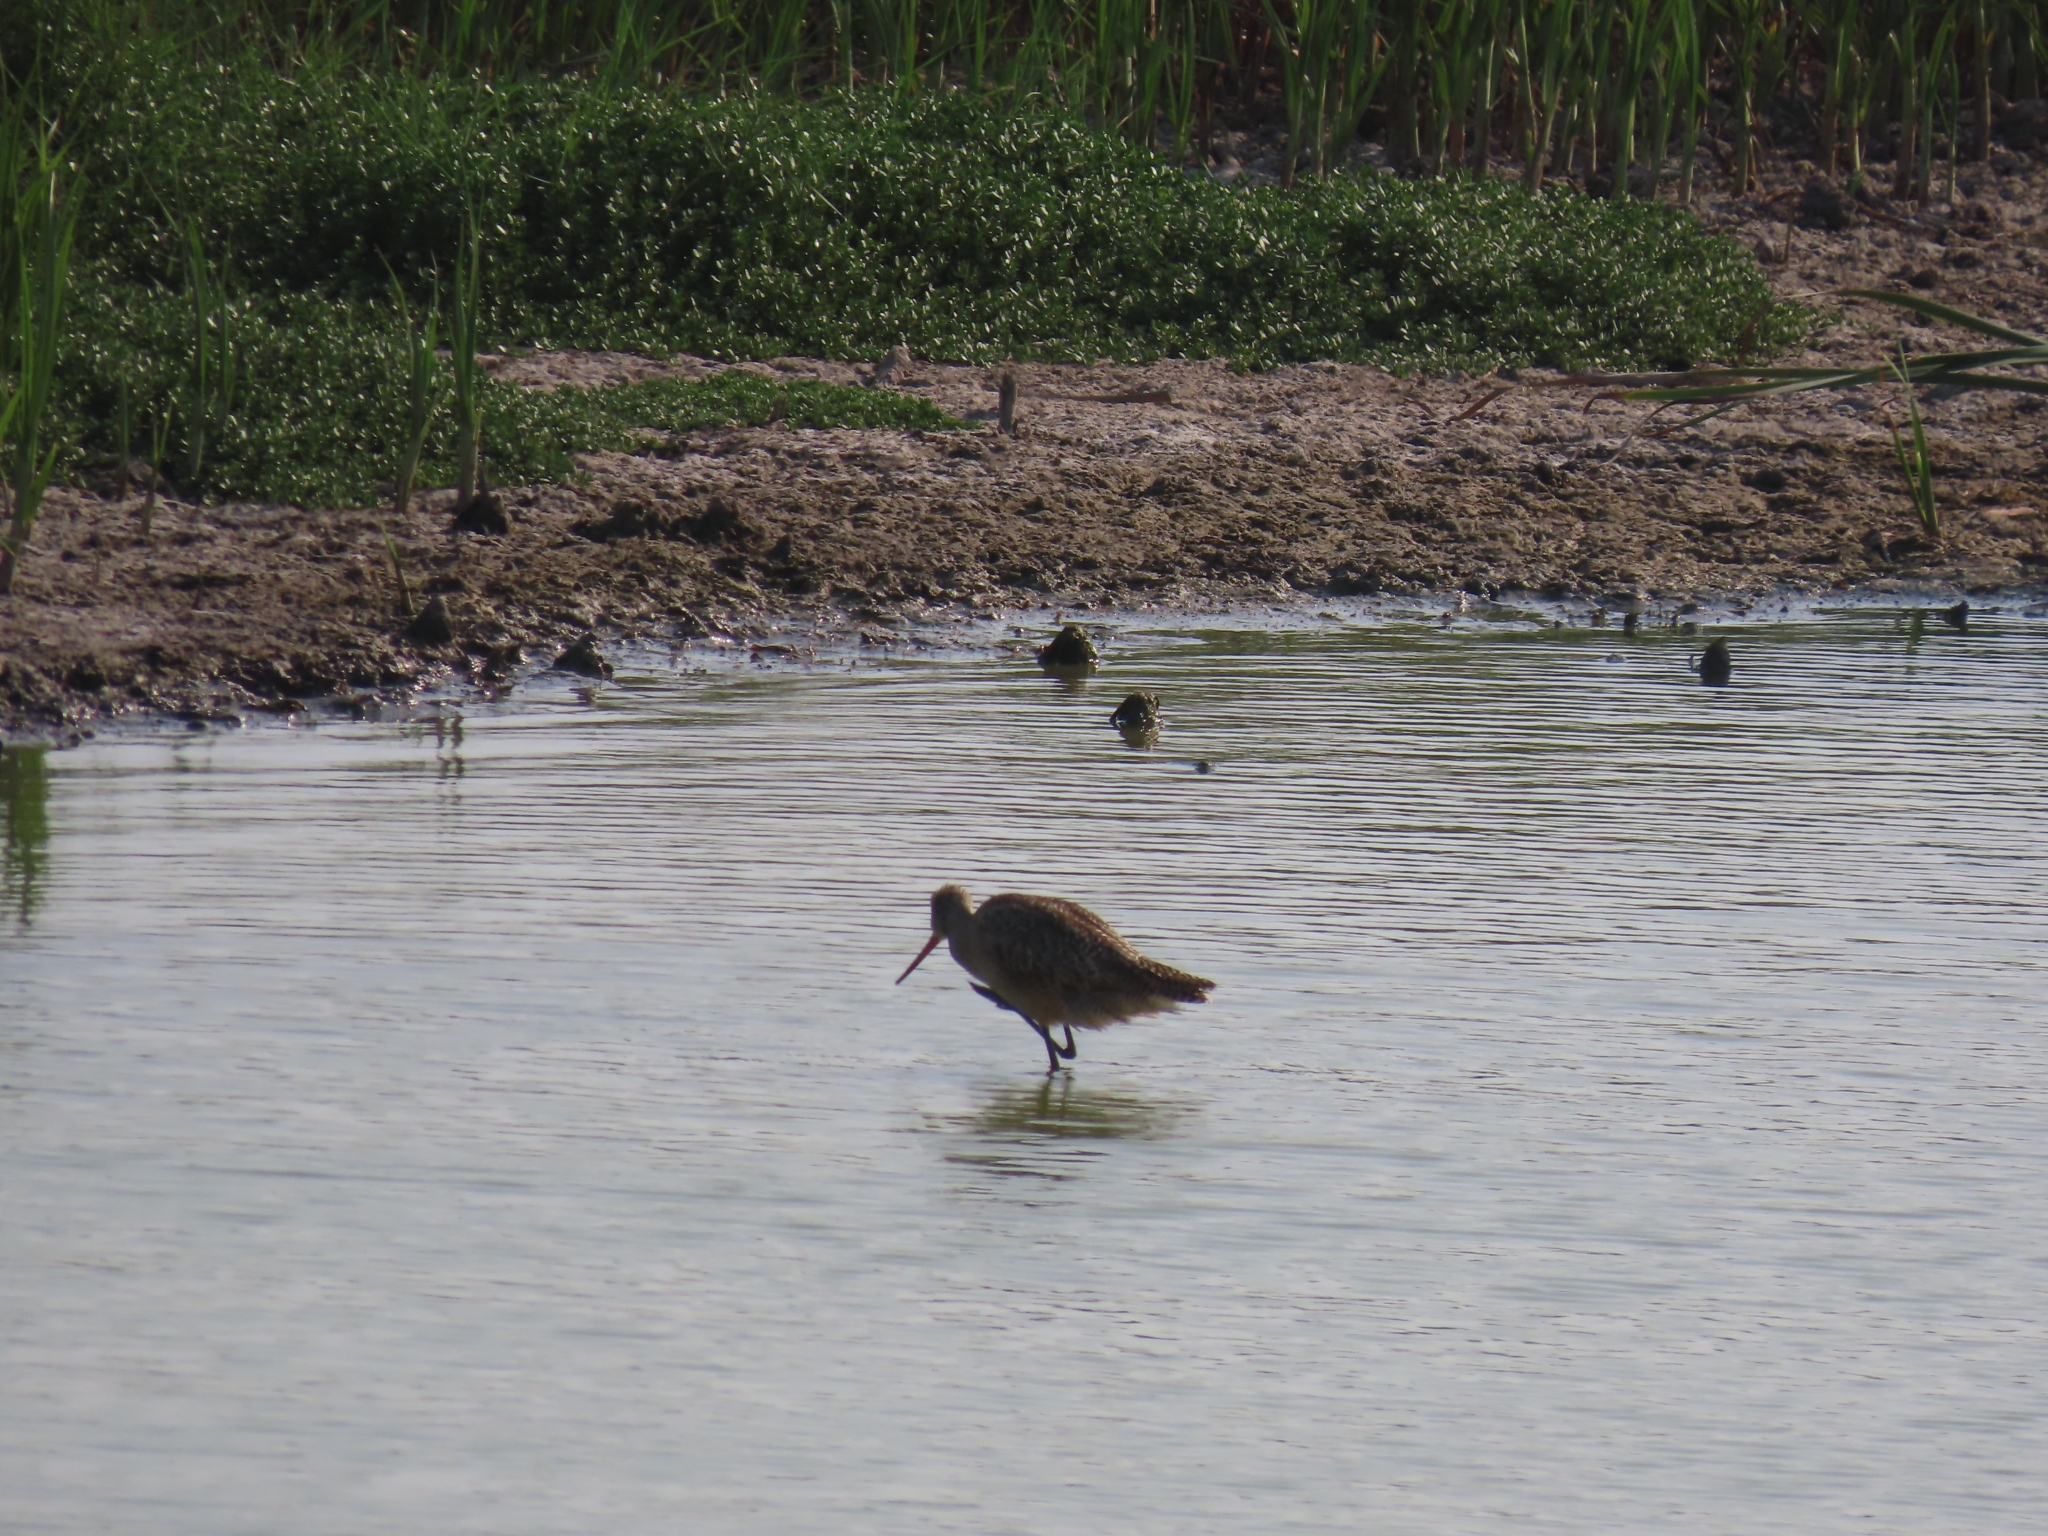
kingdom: Animalia
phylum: Chordata
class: Aves
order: Charadriiformes
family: Scolopacidae
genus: Limosa
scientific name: Limosa fedoa
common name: Marbled godwit
